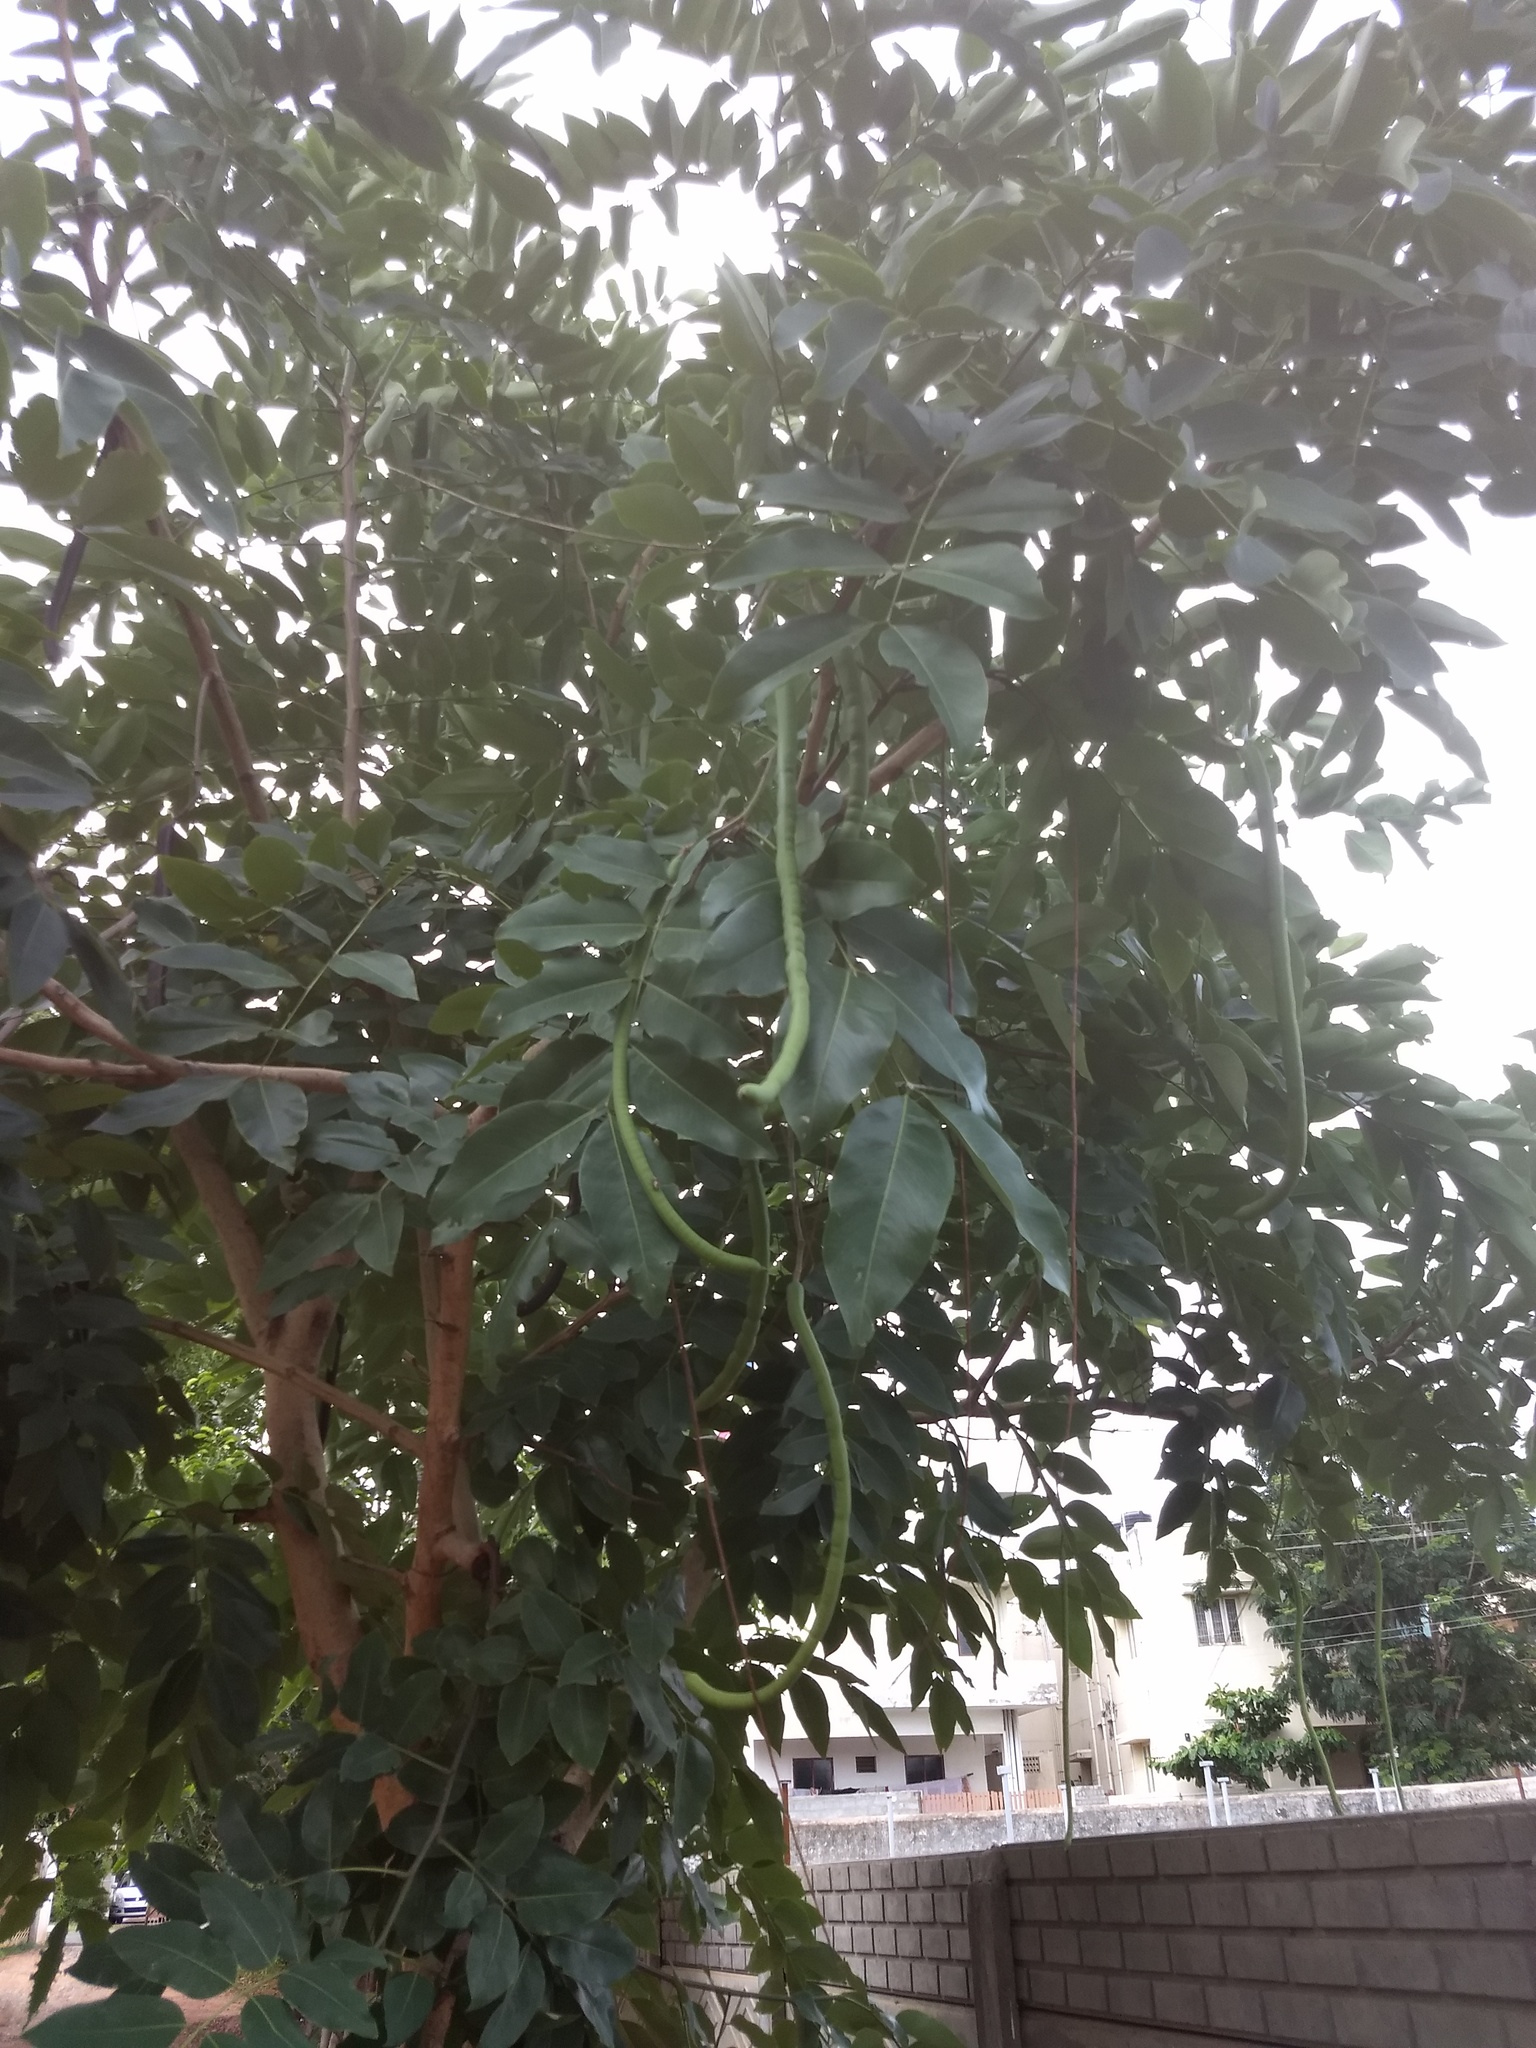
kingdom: Plantae
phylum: Tracheophyta
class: Magnoliopsida
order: Fabales
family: Fabaceae
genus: Cassia
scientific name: Cassia fistula
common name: Golden shower
